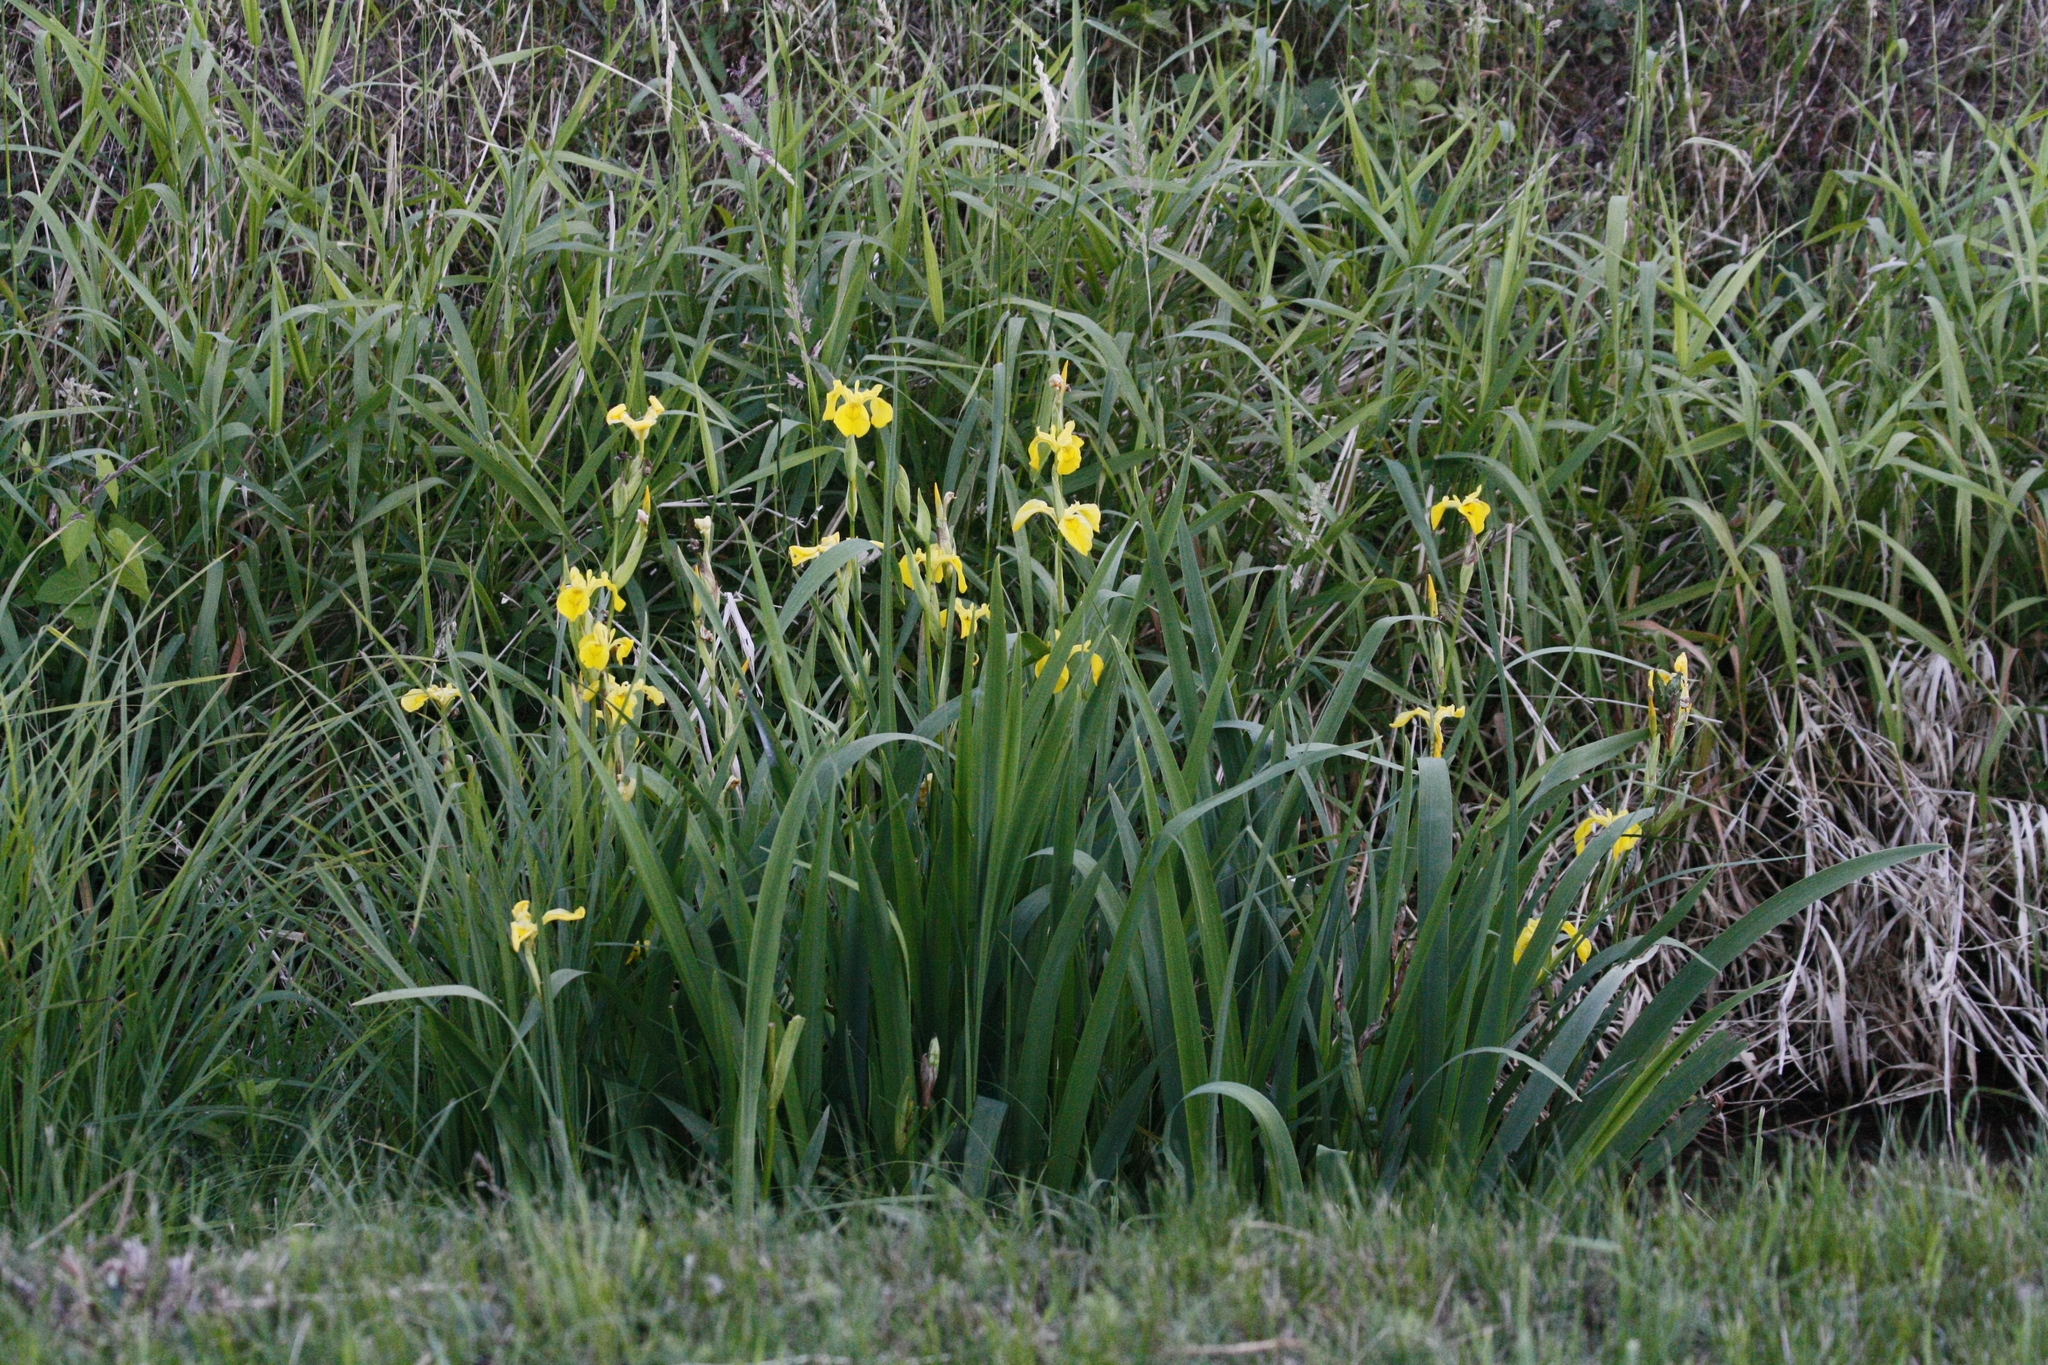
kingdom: Plantae
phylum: Tracheophyta
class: Liliopsida
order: Asparagales
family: Iridaceae
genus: Iris
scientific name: Iris pseudacorus
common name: Yellow flag
